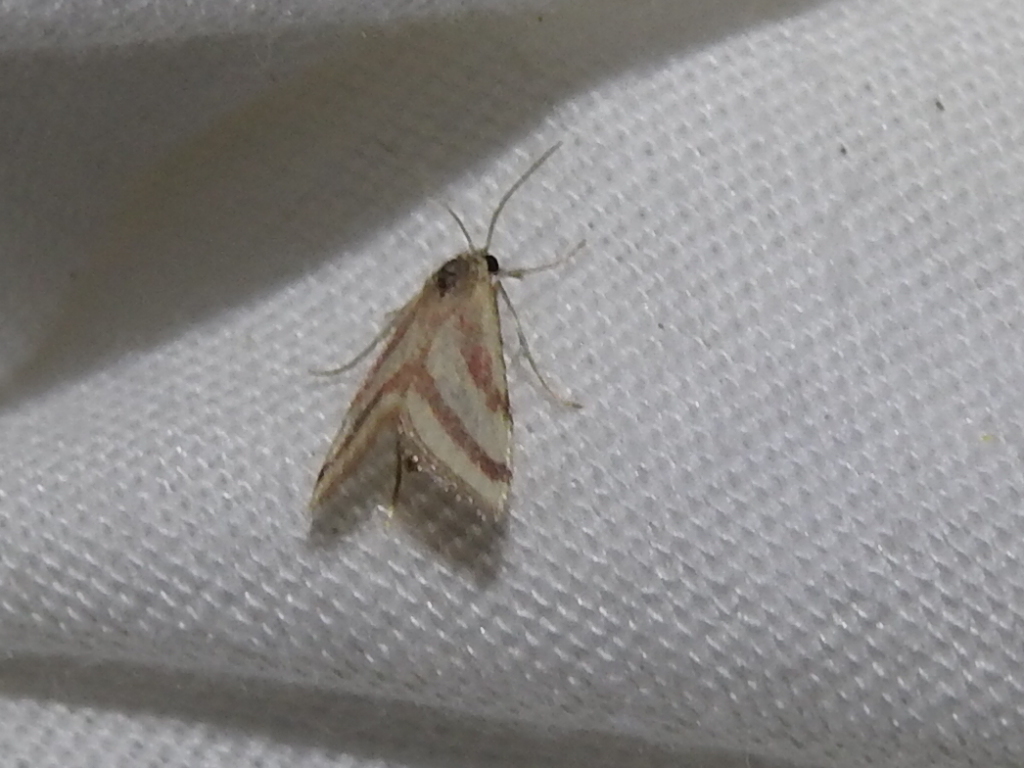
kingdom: Animalia
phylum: Arthropoda
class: Insecta
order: Lepidoptera
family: Crambidae
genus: Microtheoris
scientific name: Microtheoris vibicalis
